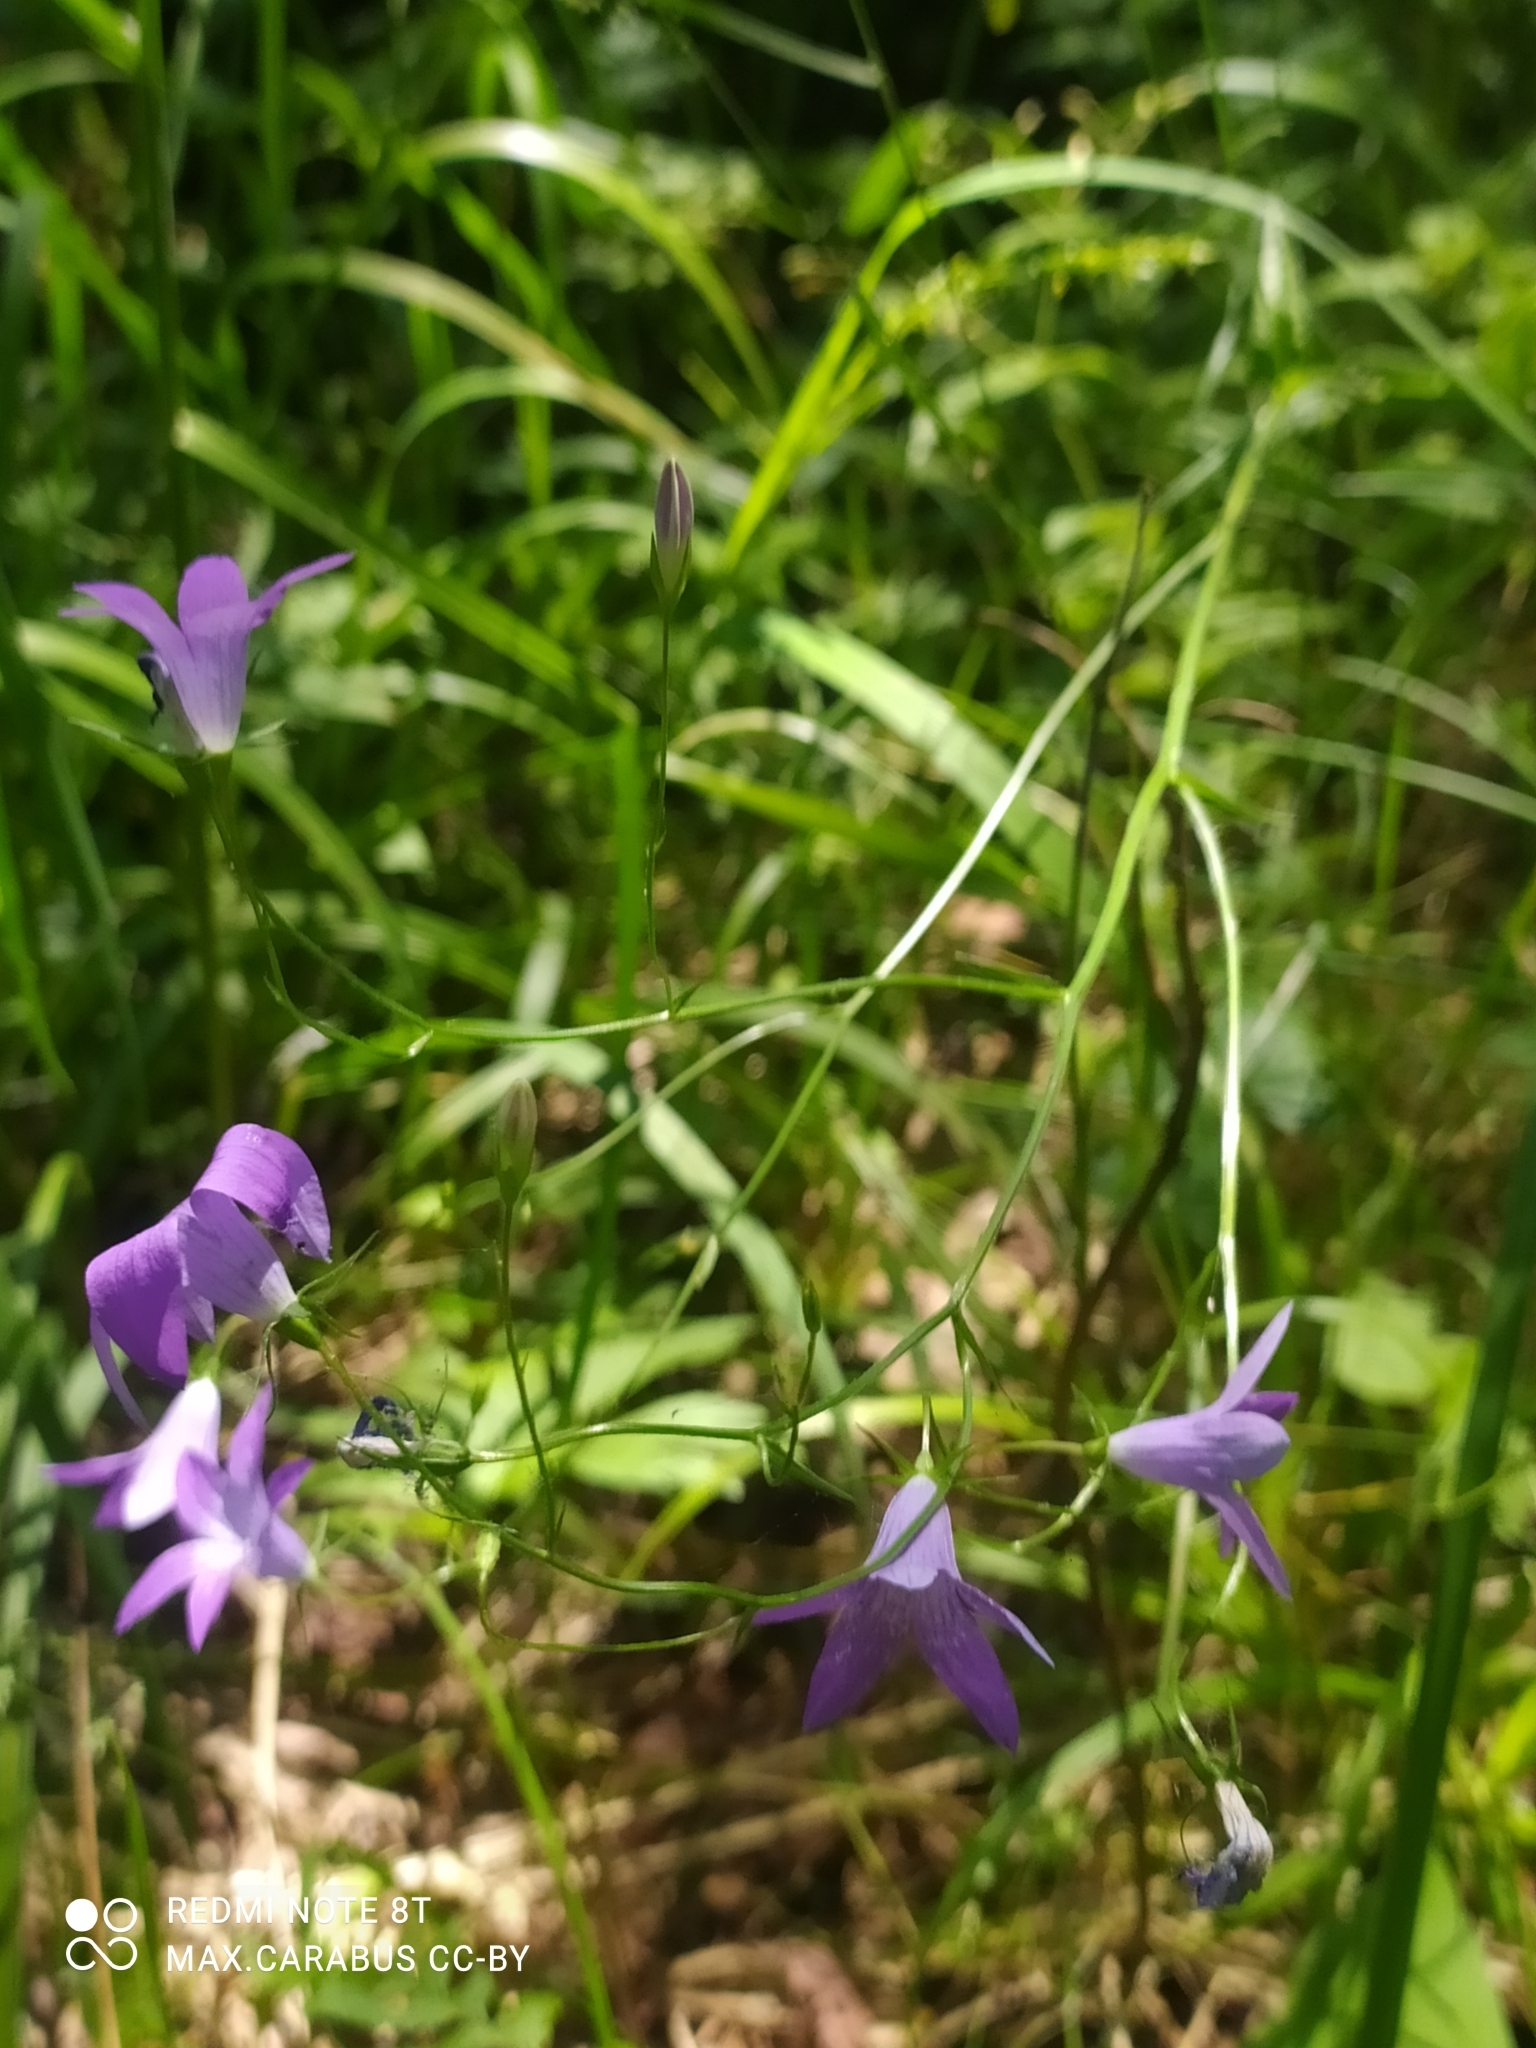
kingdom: Plantae
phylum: Tracheophyta
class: Magnoliopsida
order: Asterales
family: Campanulaceae
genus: Campanula
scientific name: Campanula patula
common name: Spreading bellflower
